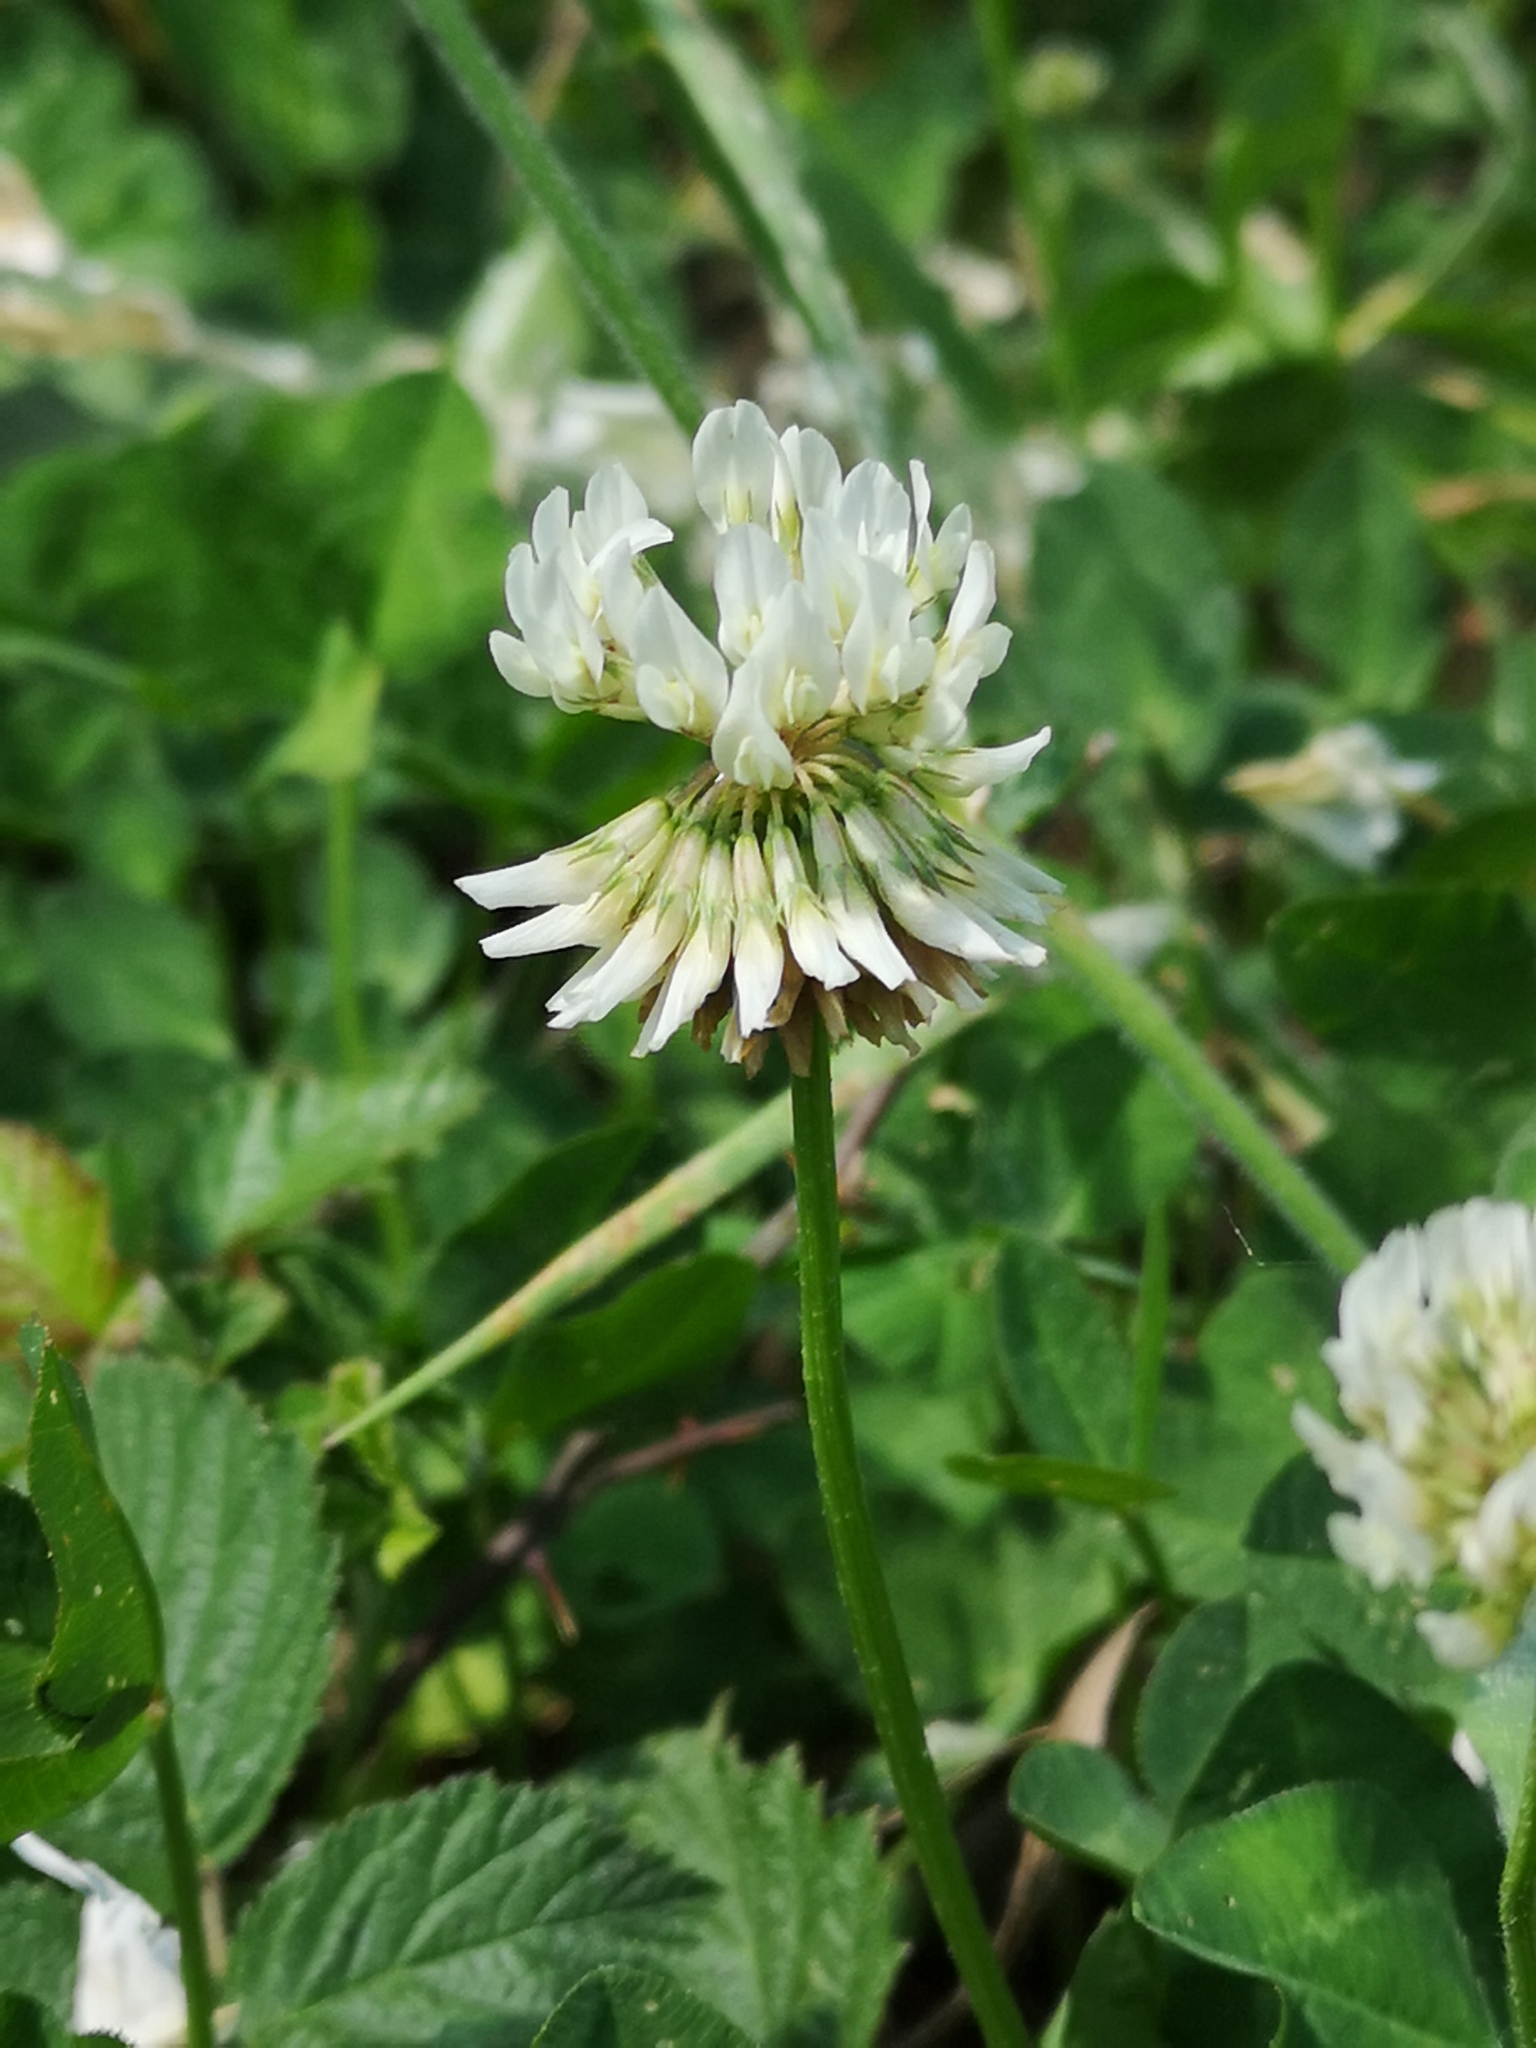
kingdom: Plantae
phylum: Tracheophyta
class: Magnoliopsida
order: Fabales
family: Fabaceae
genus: Trifolium
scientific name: Trifolium repens
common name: White clover
